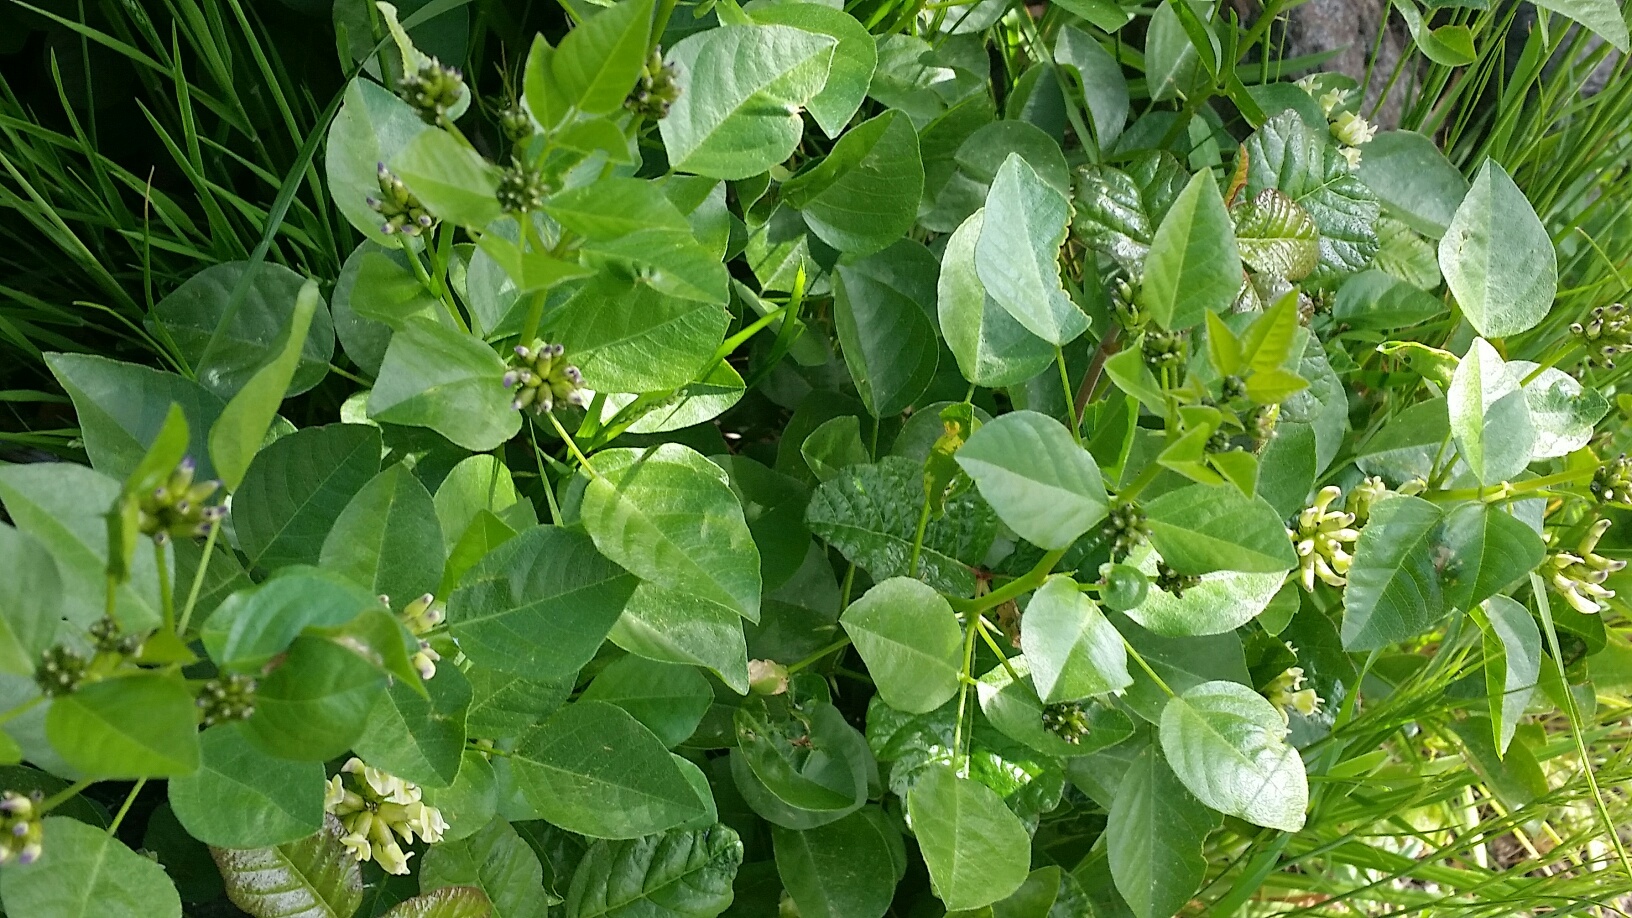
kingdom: Plantae
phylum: Tracheophyta
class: Magnoliopsida
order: Fabales
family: Fabaceae
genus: Rupertia
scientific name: Rupertia physodes
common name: California-tea
